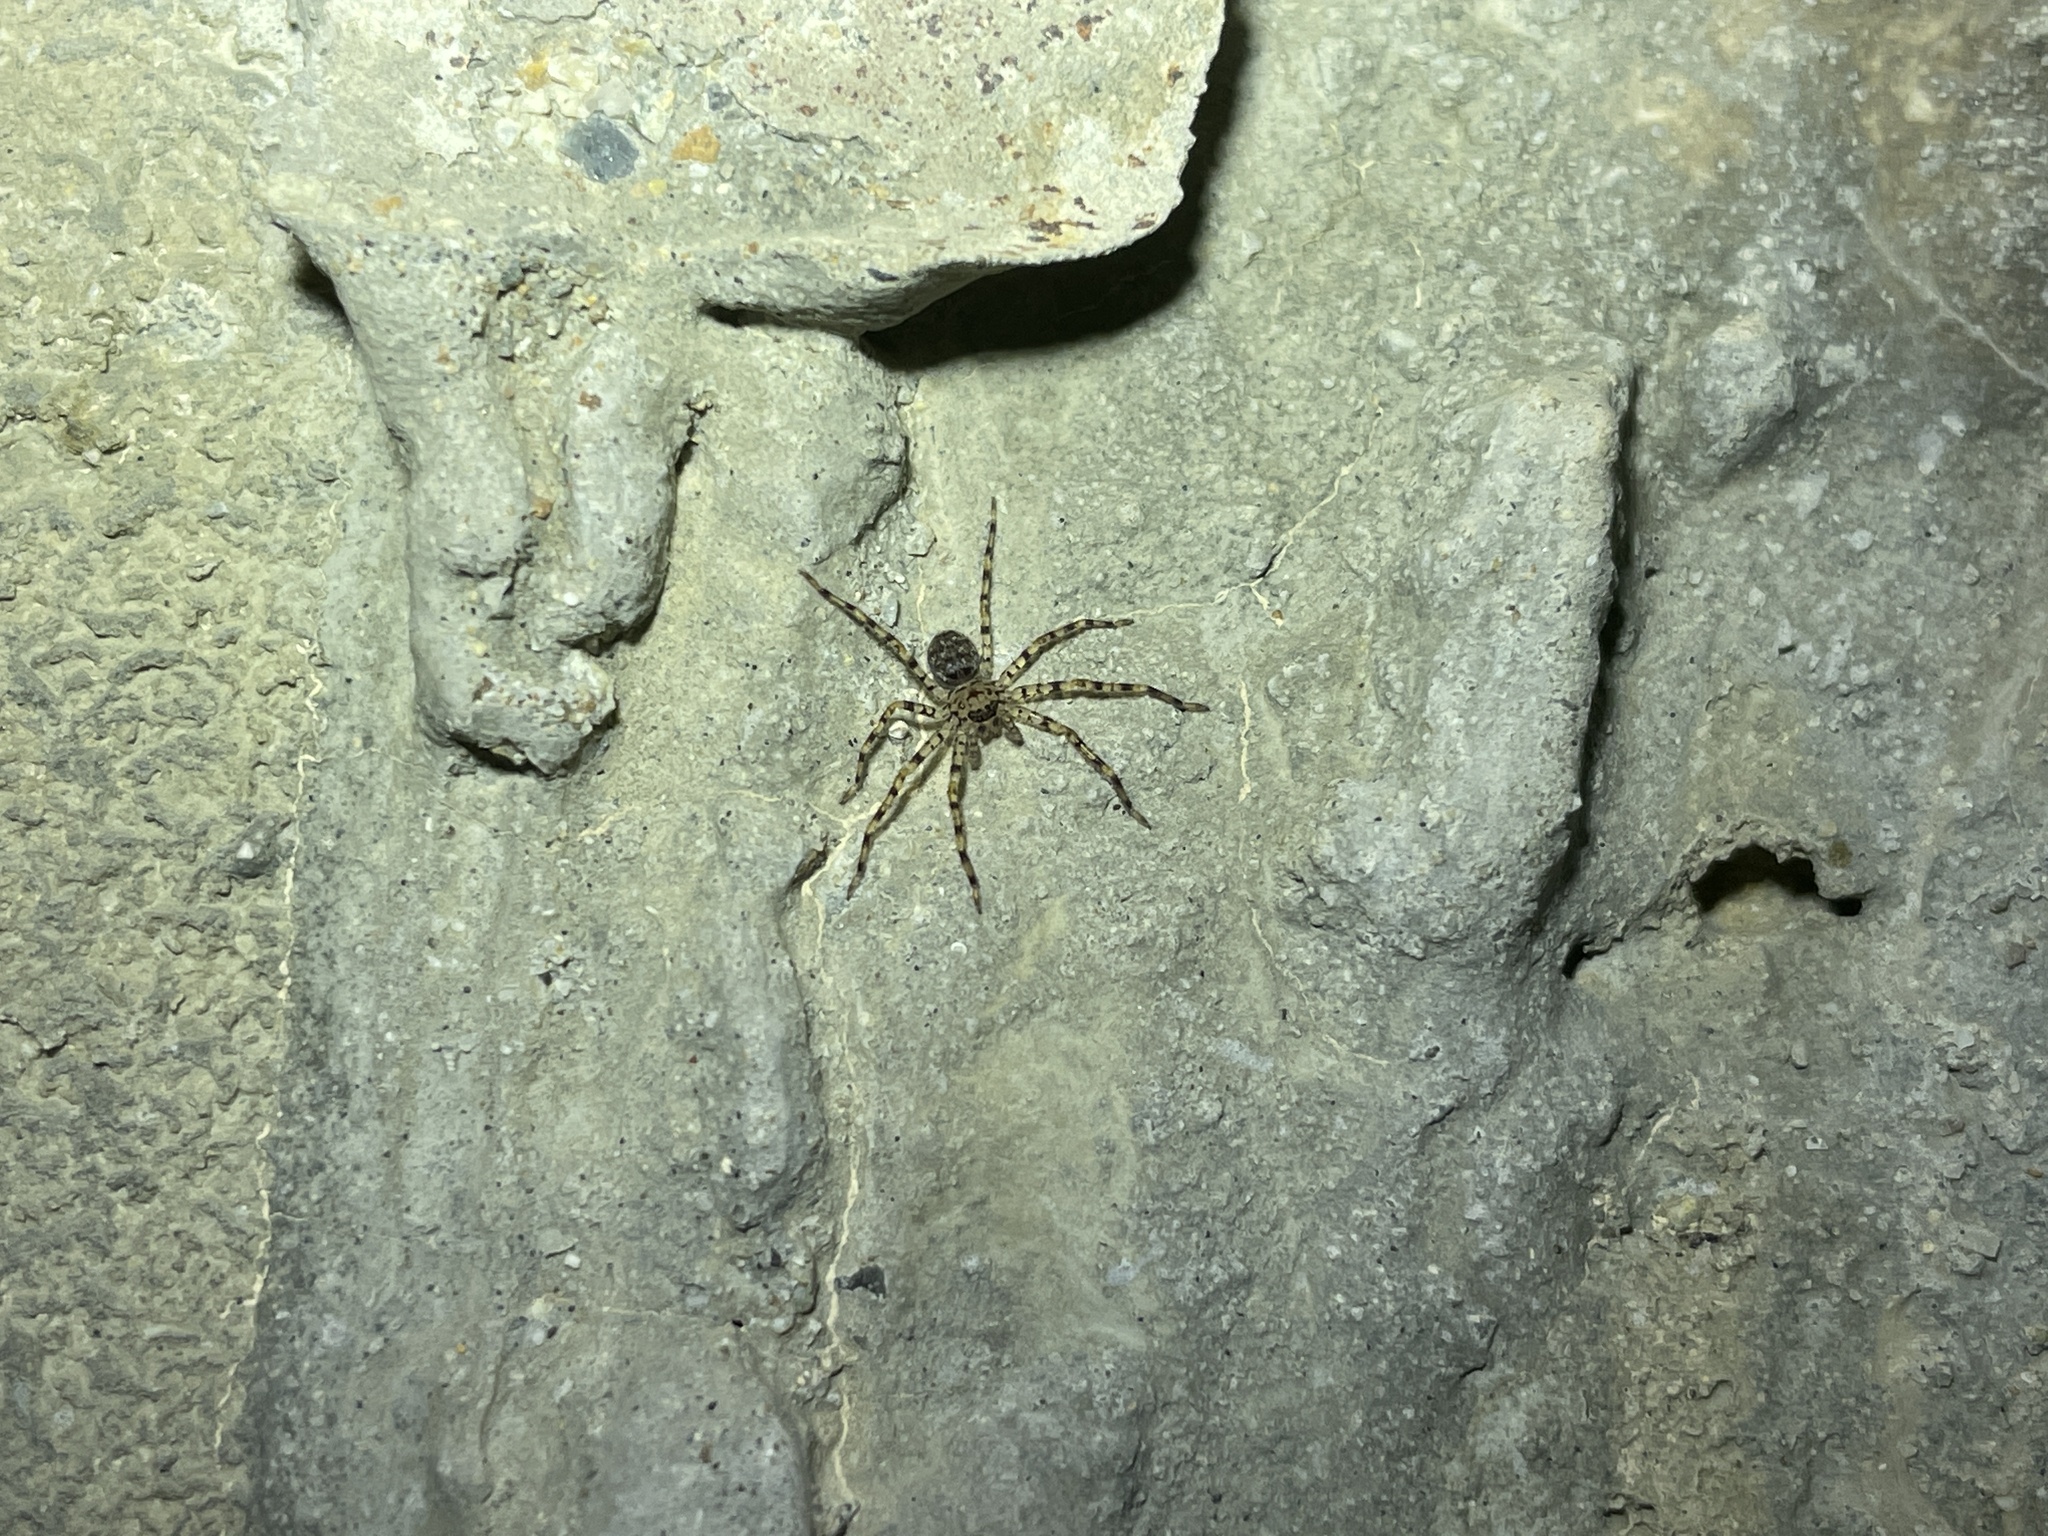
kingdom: Animalia
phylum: Arthropoda
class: Arachnida
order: Araneae
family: Sparassidae
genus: Heteropoda
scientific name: Heteropoda venatoria
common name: Huntsman spider
